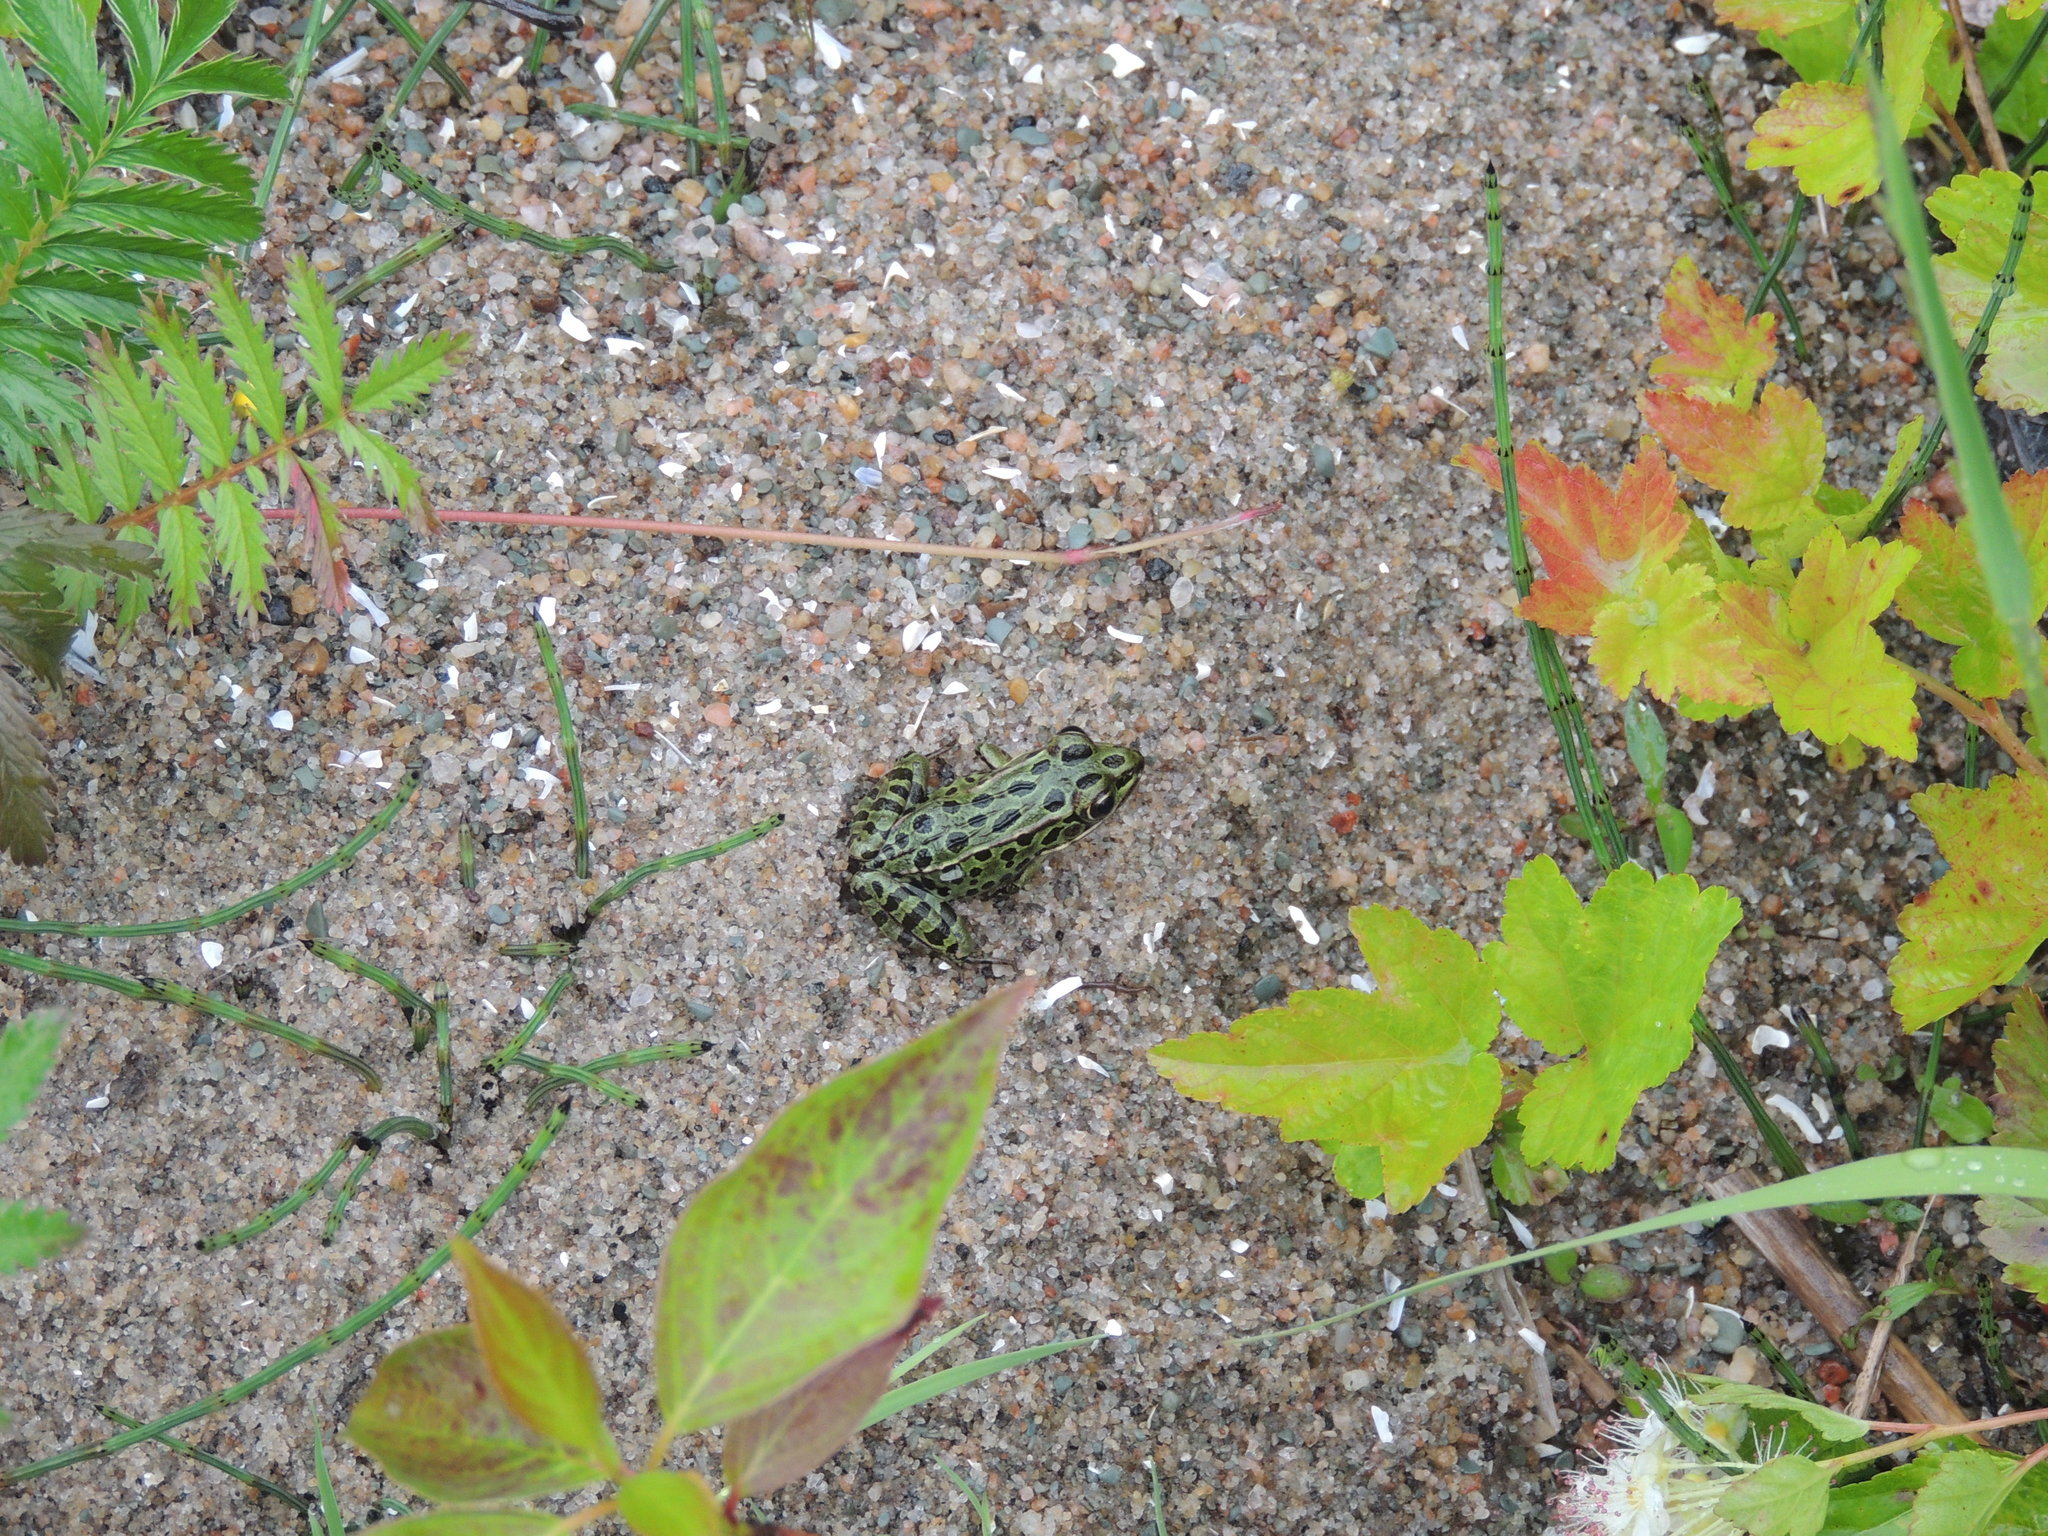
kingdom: Animalia
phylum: Chordata
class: Amphibia
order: Anura
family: Ranidae
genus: Lithobates
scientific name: Lithobates pipiens
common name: Northern leopard frog
